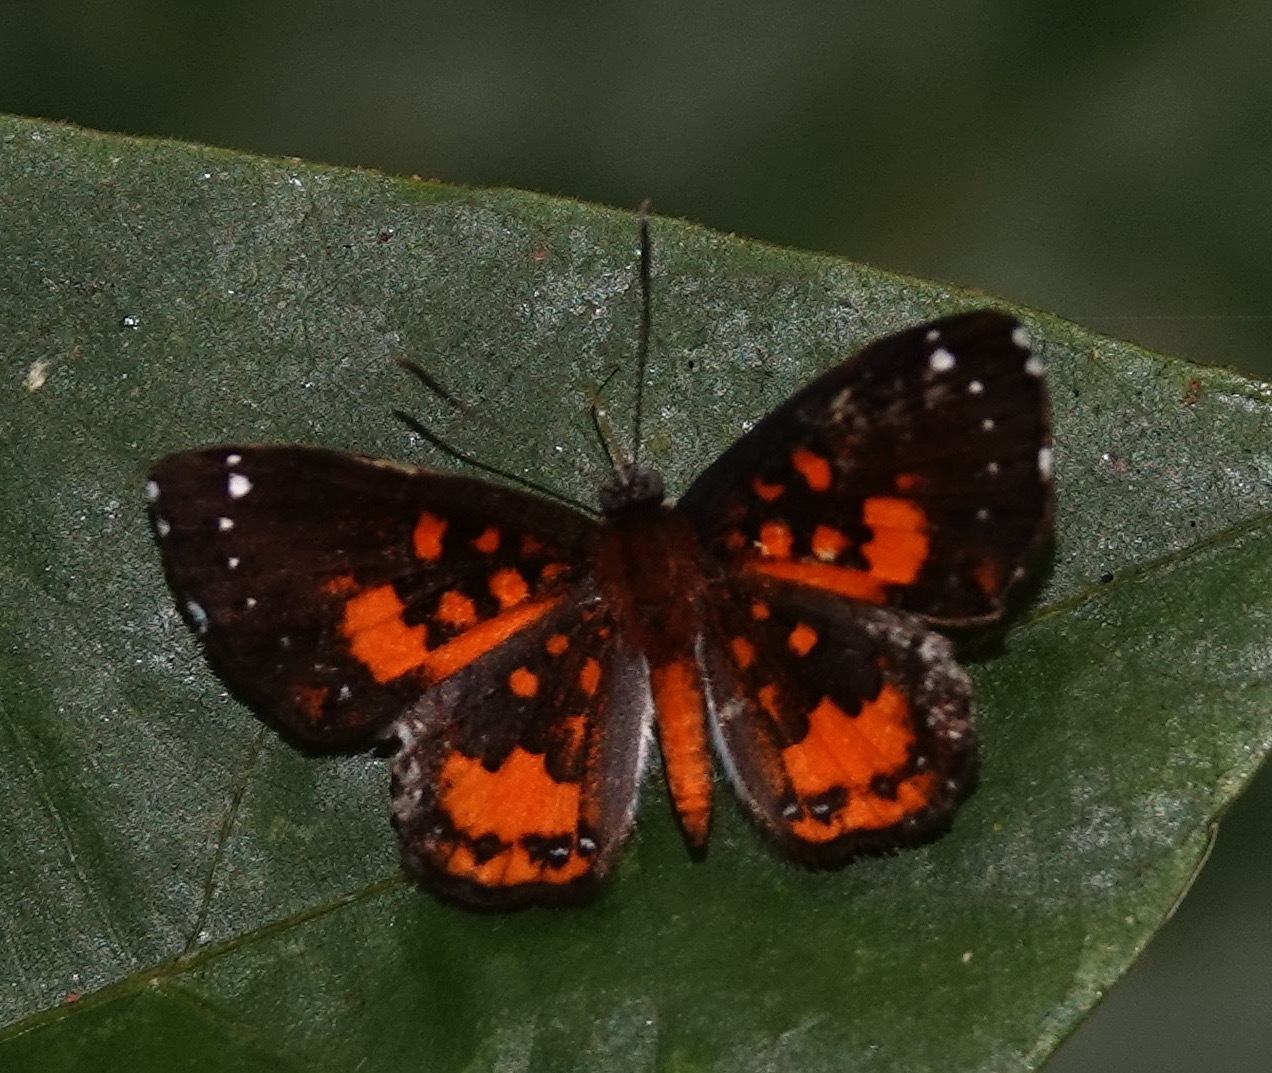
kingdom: Animalia
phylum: Arthropoda
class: Insecta
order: Lepidoptera
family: Riodinidae
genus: Polystichtis
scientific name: Polystichtis emylius
